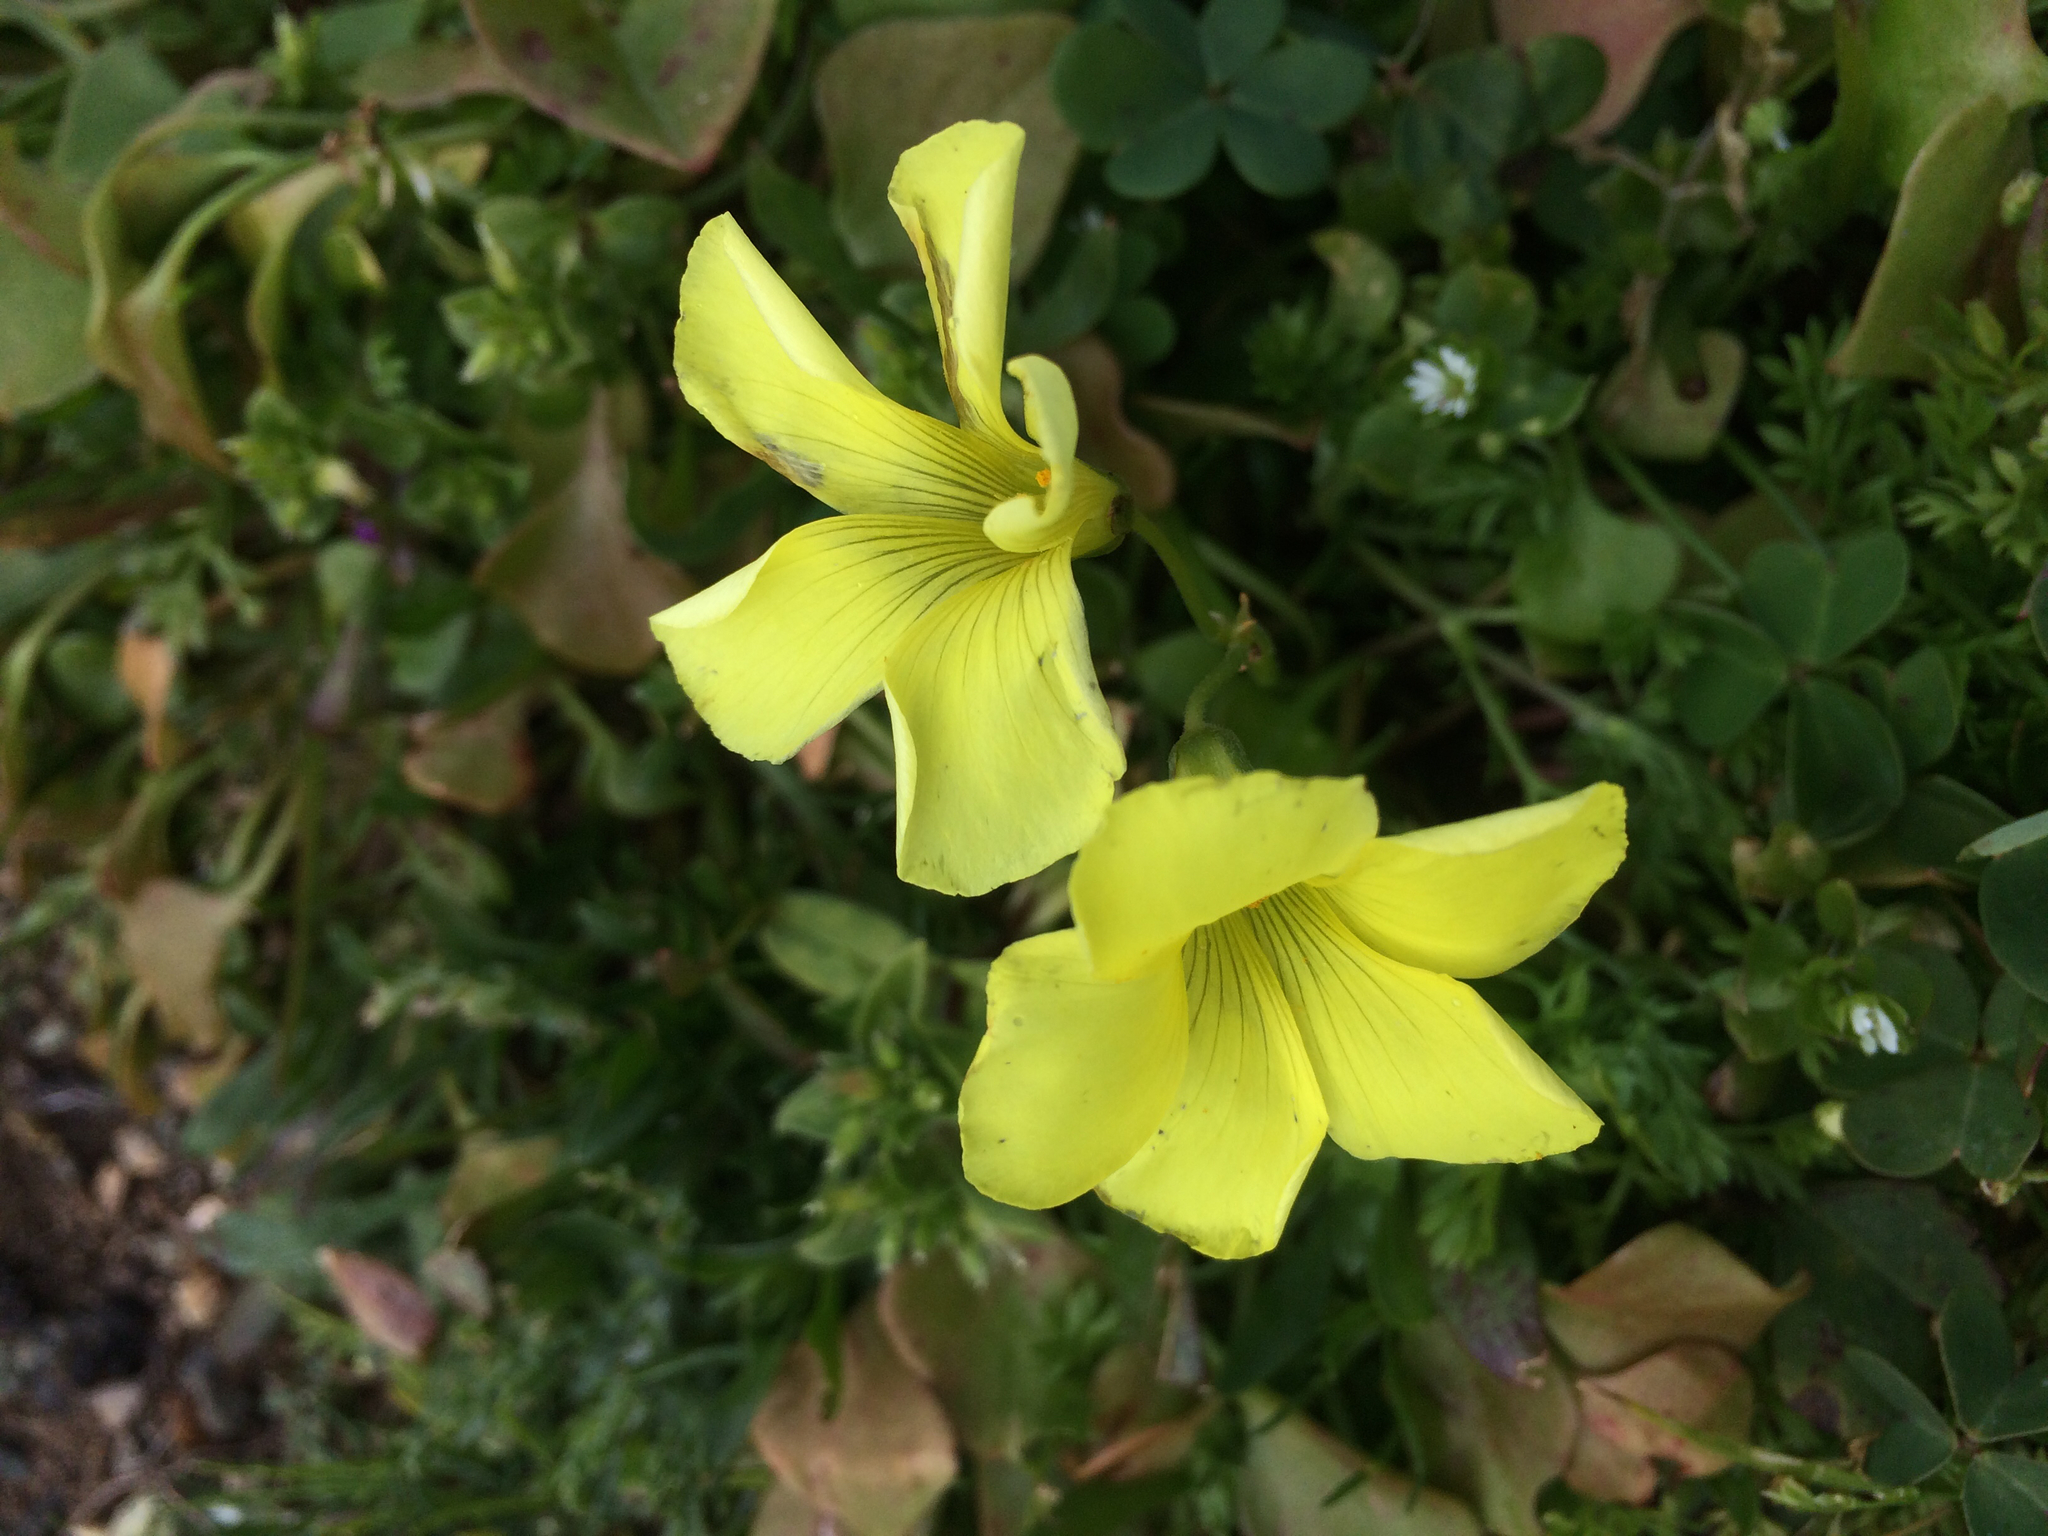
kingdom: Plantae
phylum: Tracheophyta
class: Magnoliopsida
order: Oxalidales
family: Oxalidaceae
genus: Oxalis
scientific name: Oxalis pes-caprae
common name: Bermuda-buttercup
